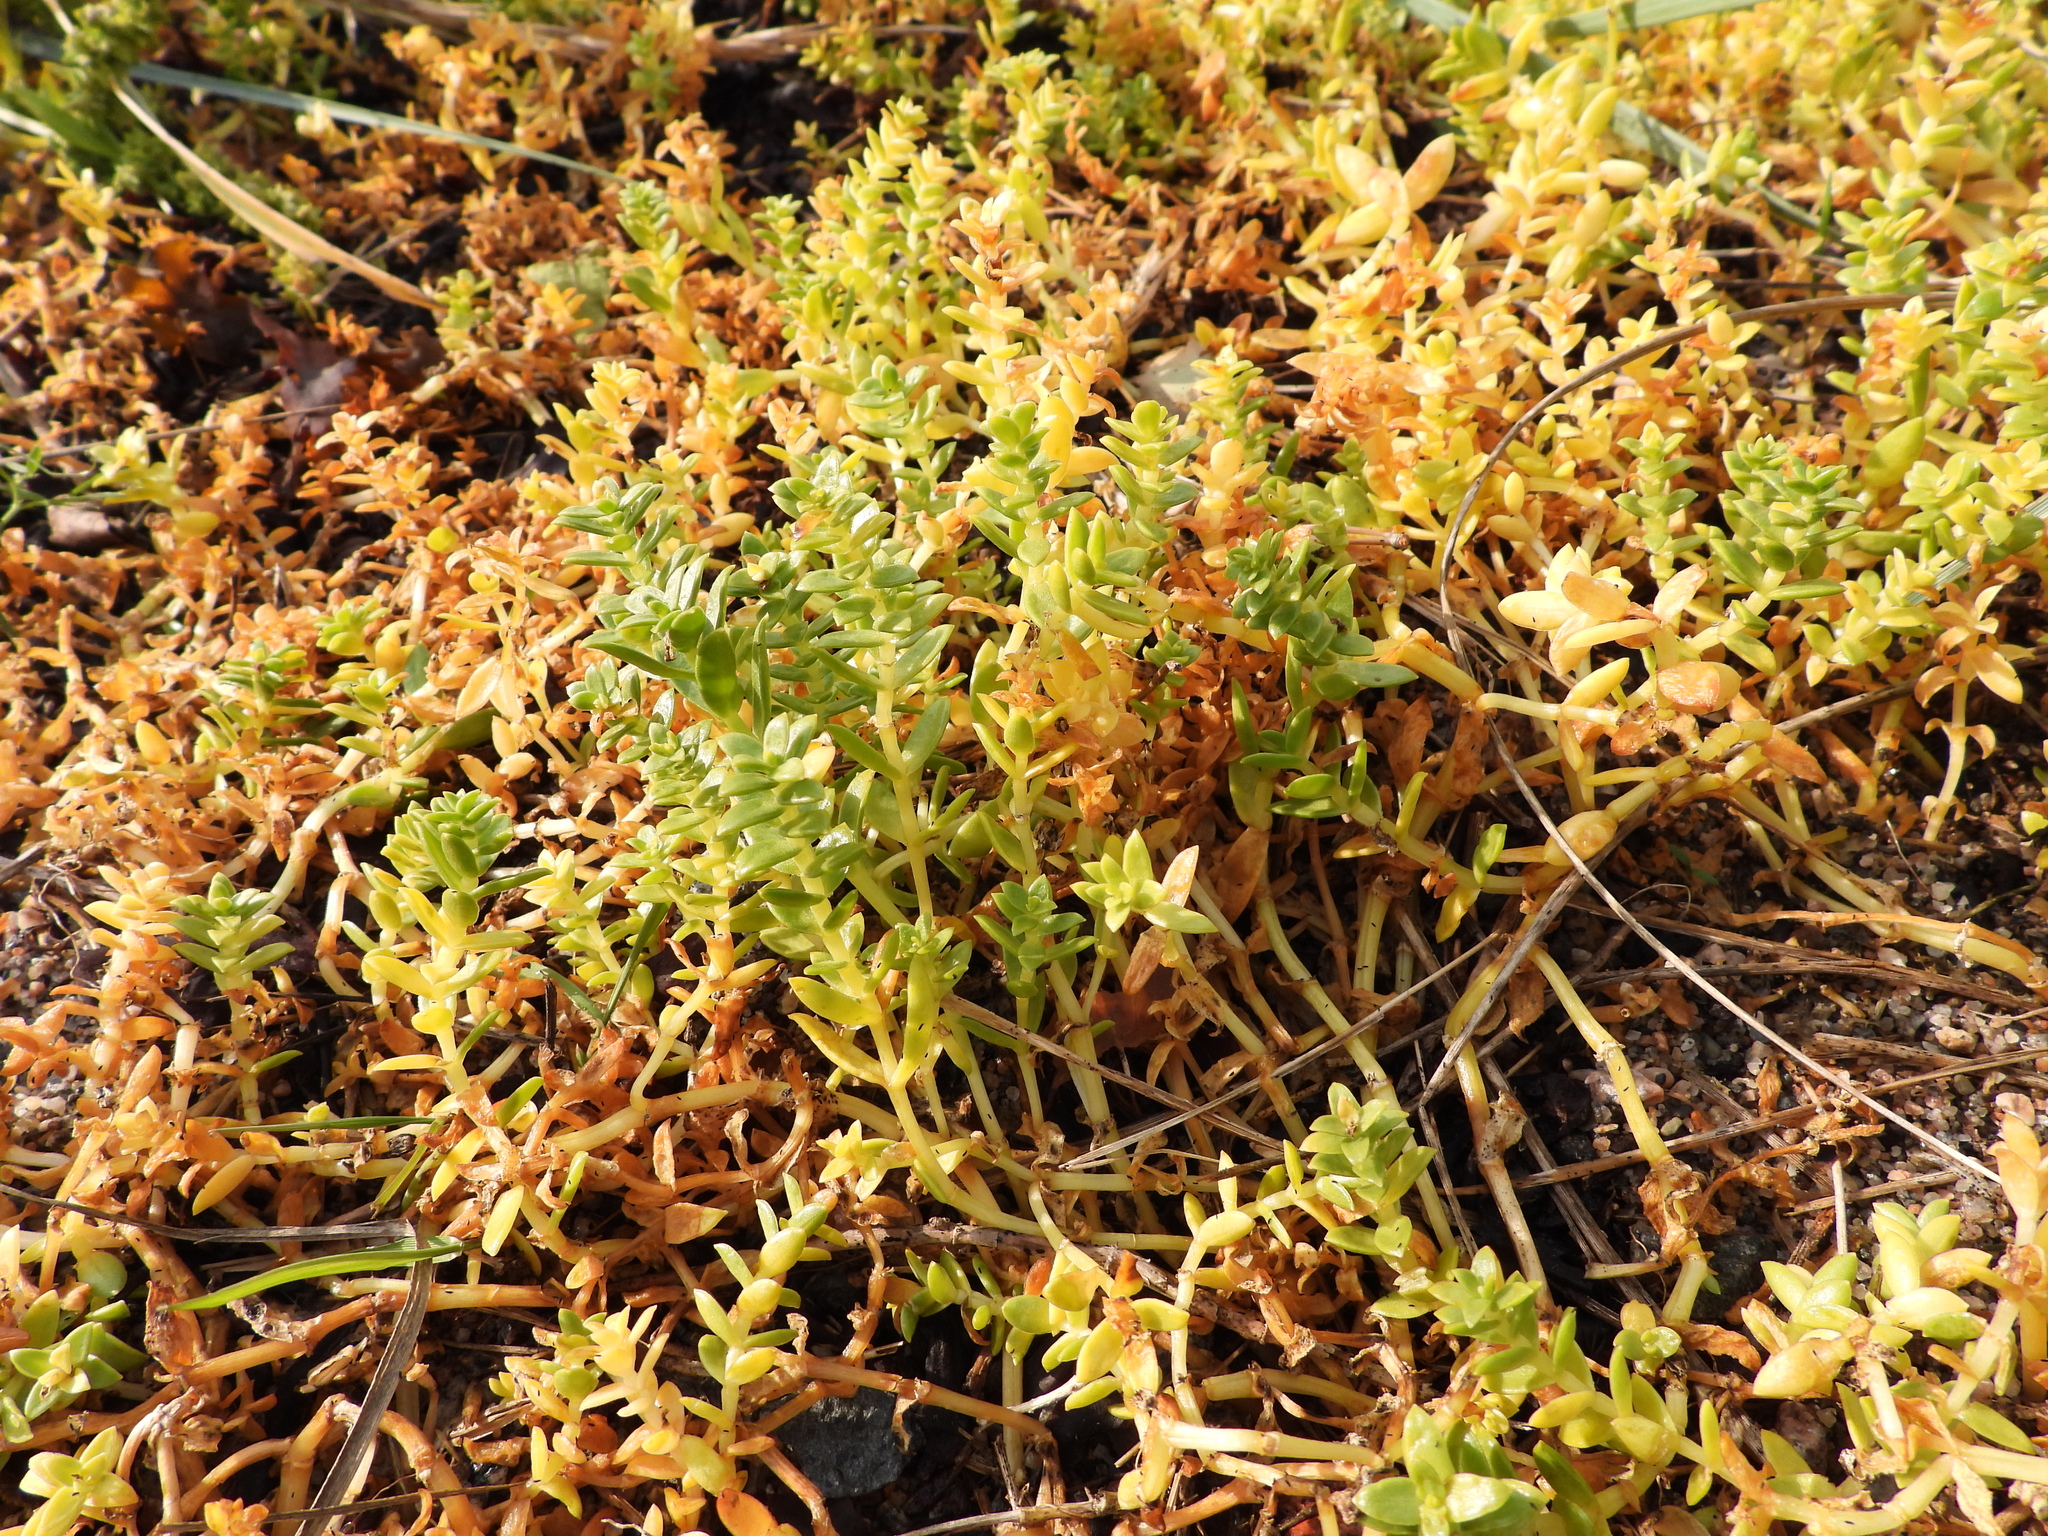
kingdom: Plantae
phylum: Tracheophyta
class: Magnoliopsida
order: Ericales
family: Primulaceae
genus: Lysimachia
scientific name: Lysimachia maritima
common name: Sea milkwort
